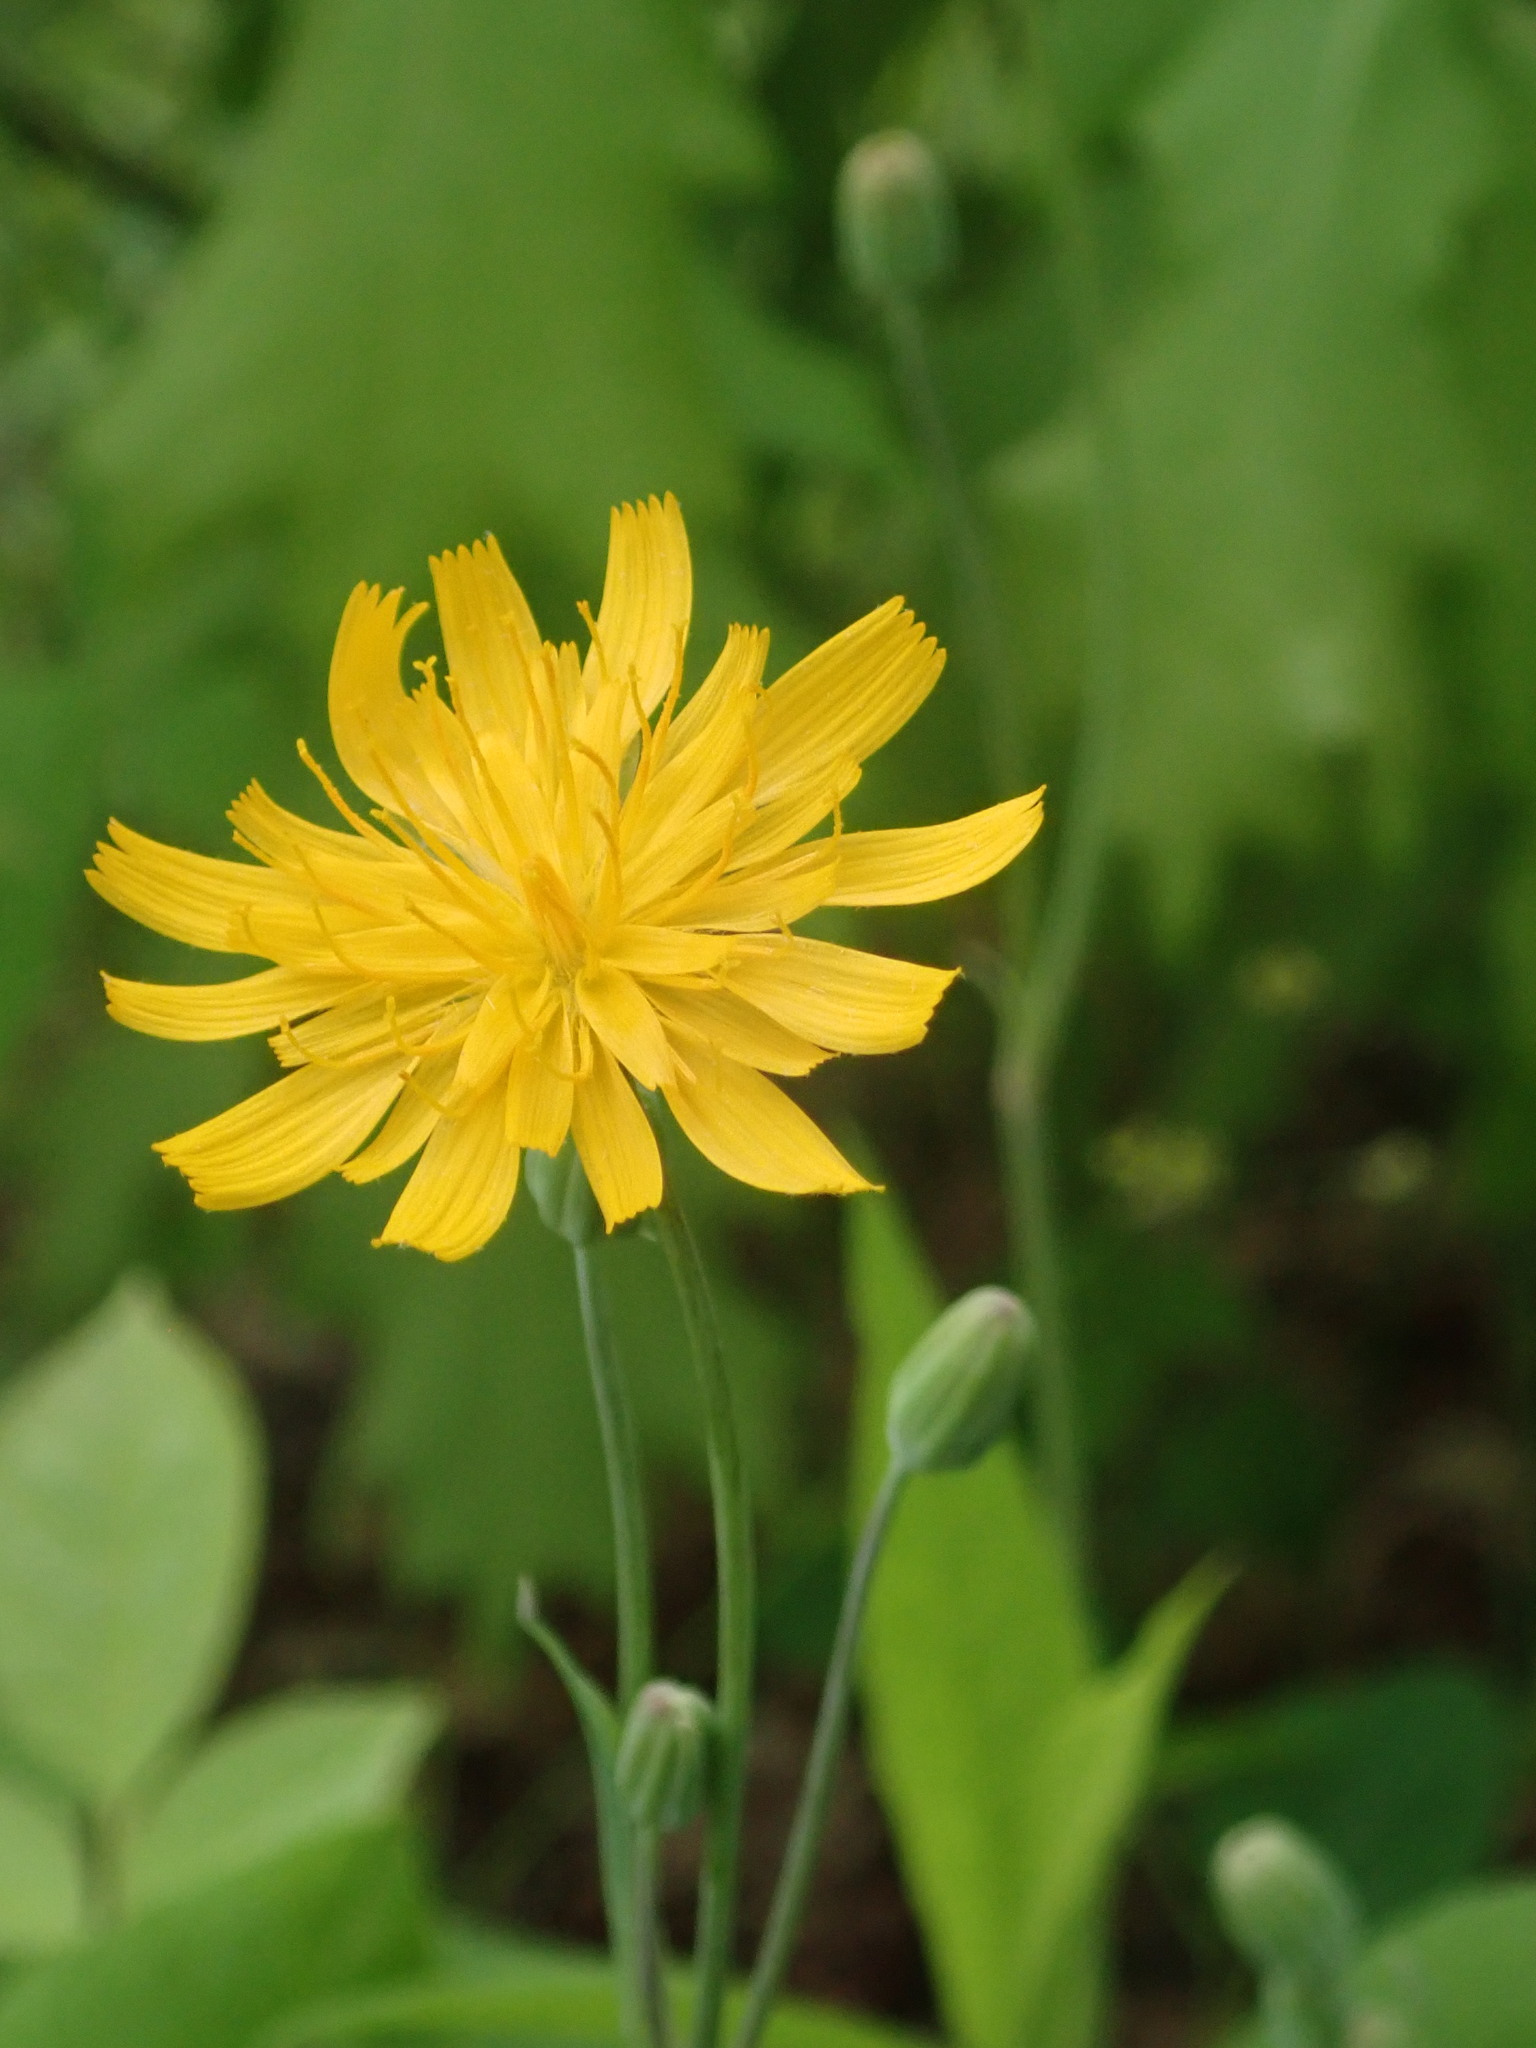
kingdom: Plantae
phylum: Tracheophyta
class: Magnoliopsida
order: Asterales
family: Asteraceae
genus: Krigia
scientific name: Krigia biflora
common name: Orange dwarf-dandelion
